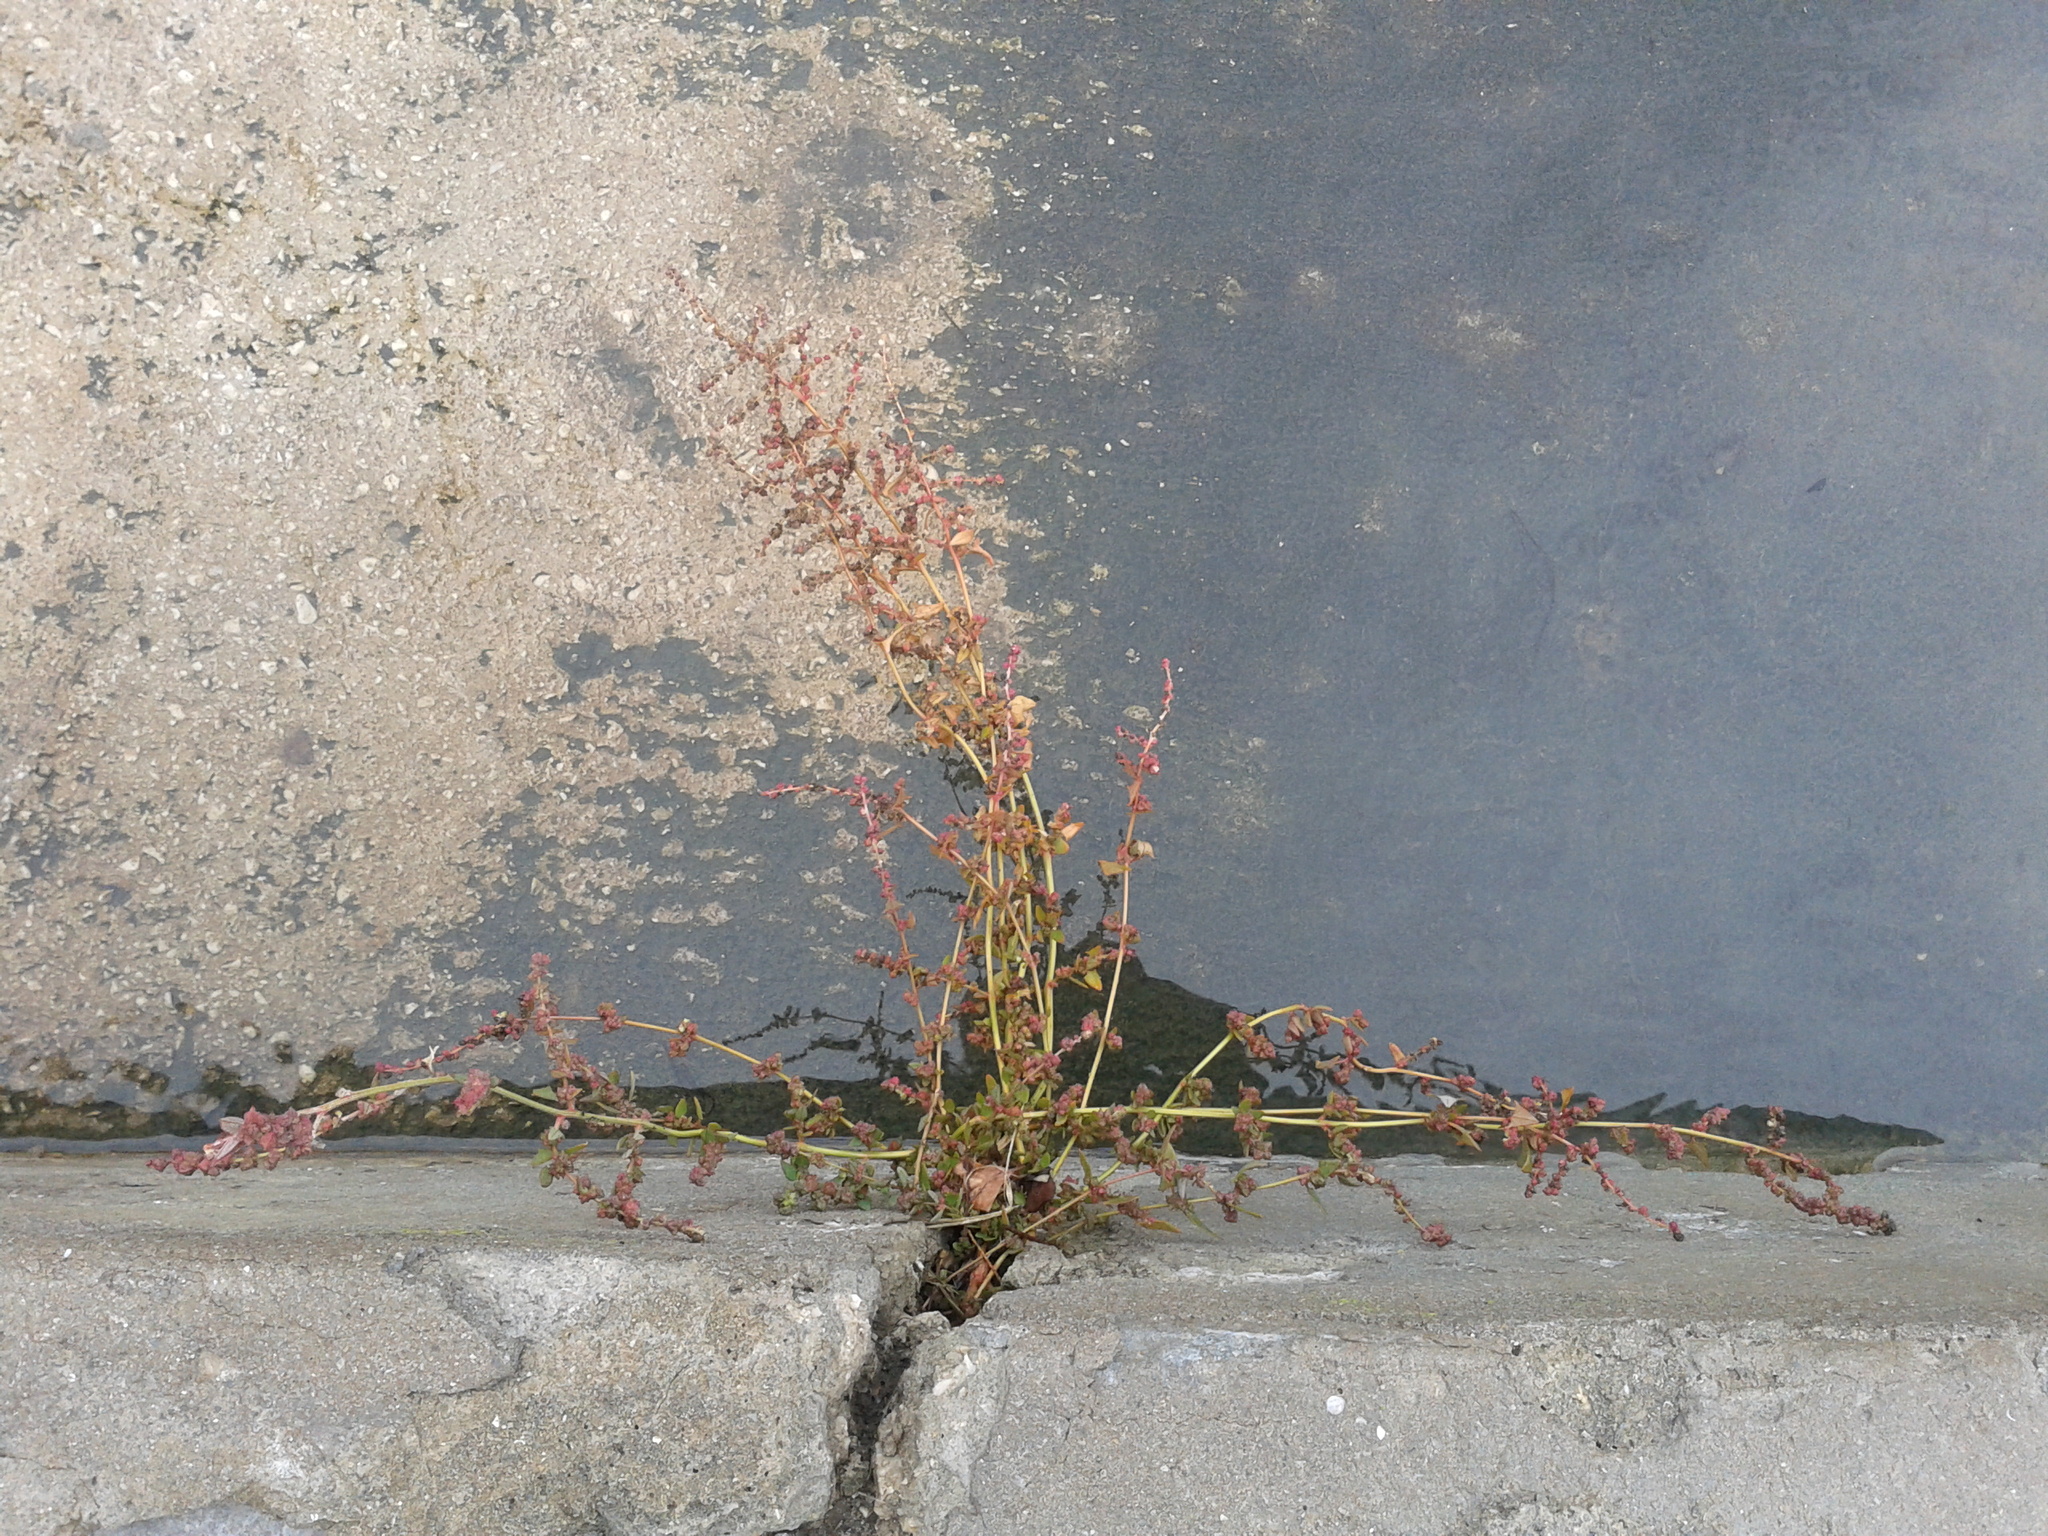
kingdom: Plantae
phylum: Tracheophyta
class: Magnoliopsida
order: Caryophyllales
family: Amaranthaceae
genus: Atriplex
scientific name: Atriplex prostrata
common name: Spear-leaved orache
